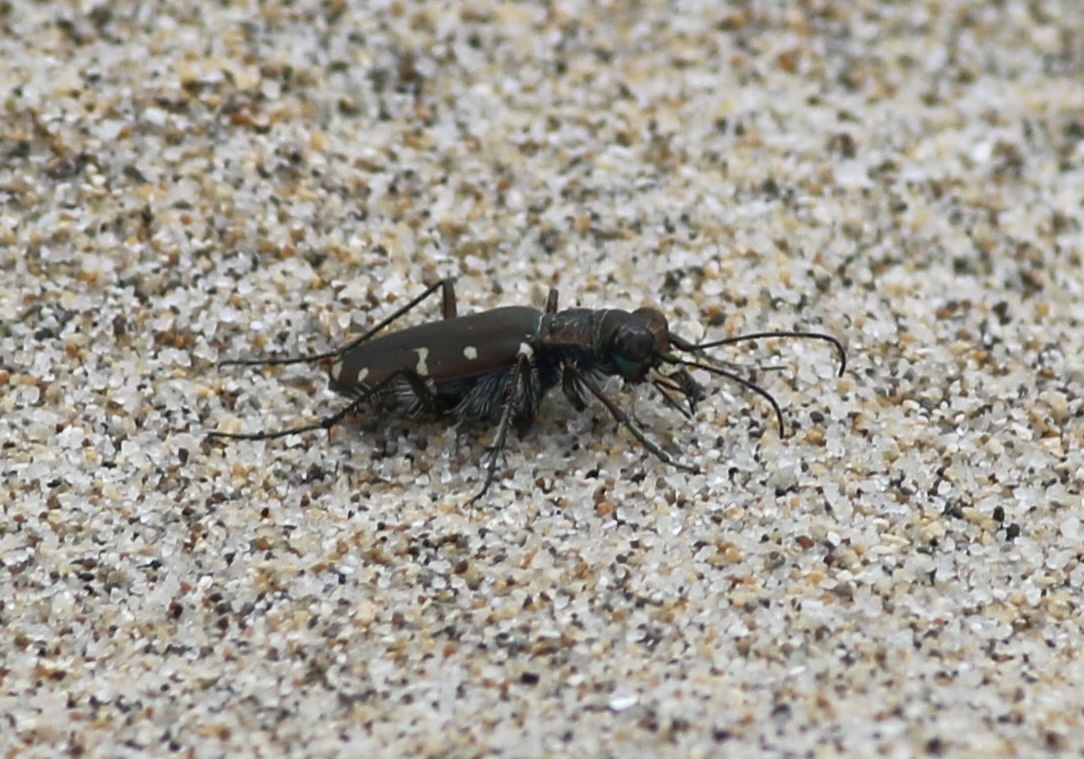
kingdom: Animalia
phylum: Arthropoda
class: Insecta
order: Coleoptera
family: Carabidae
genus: Cicindela
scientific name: Cicindela oregona
